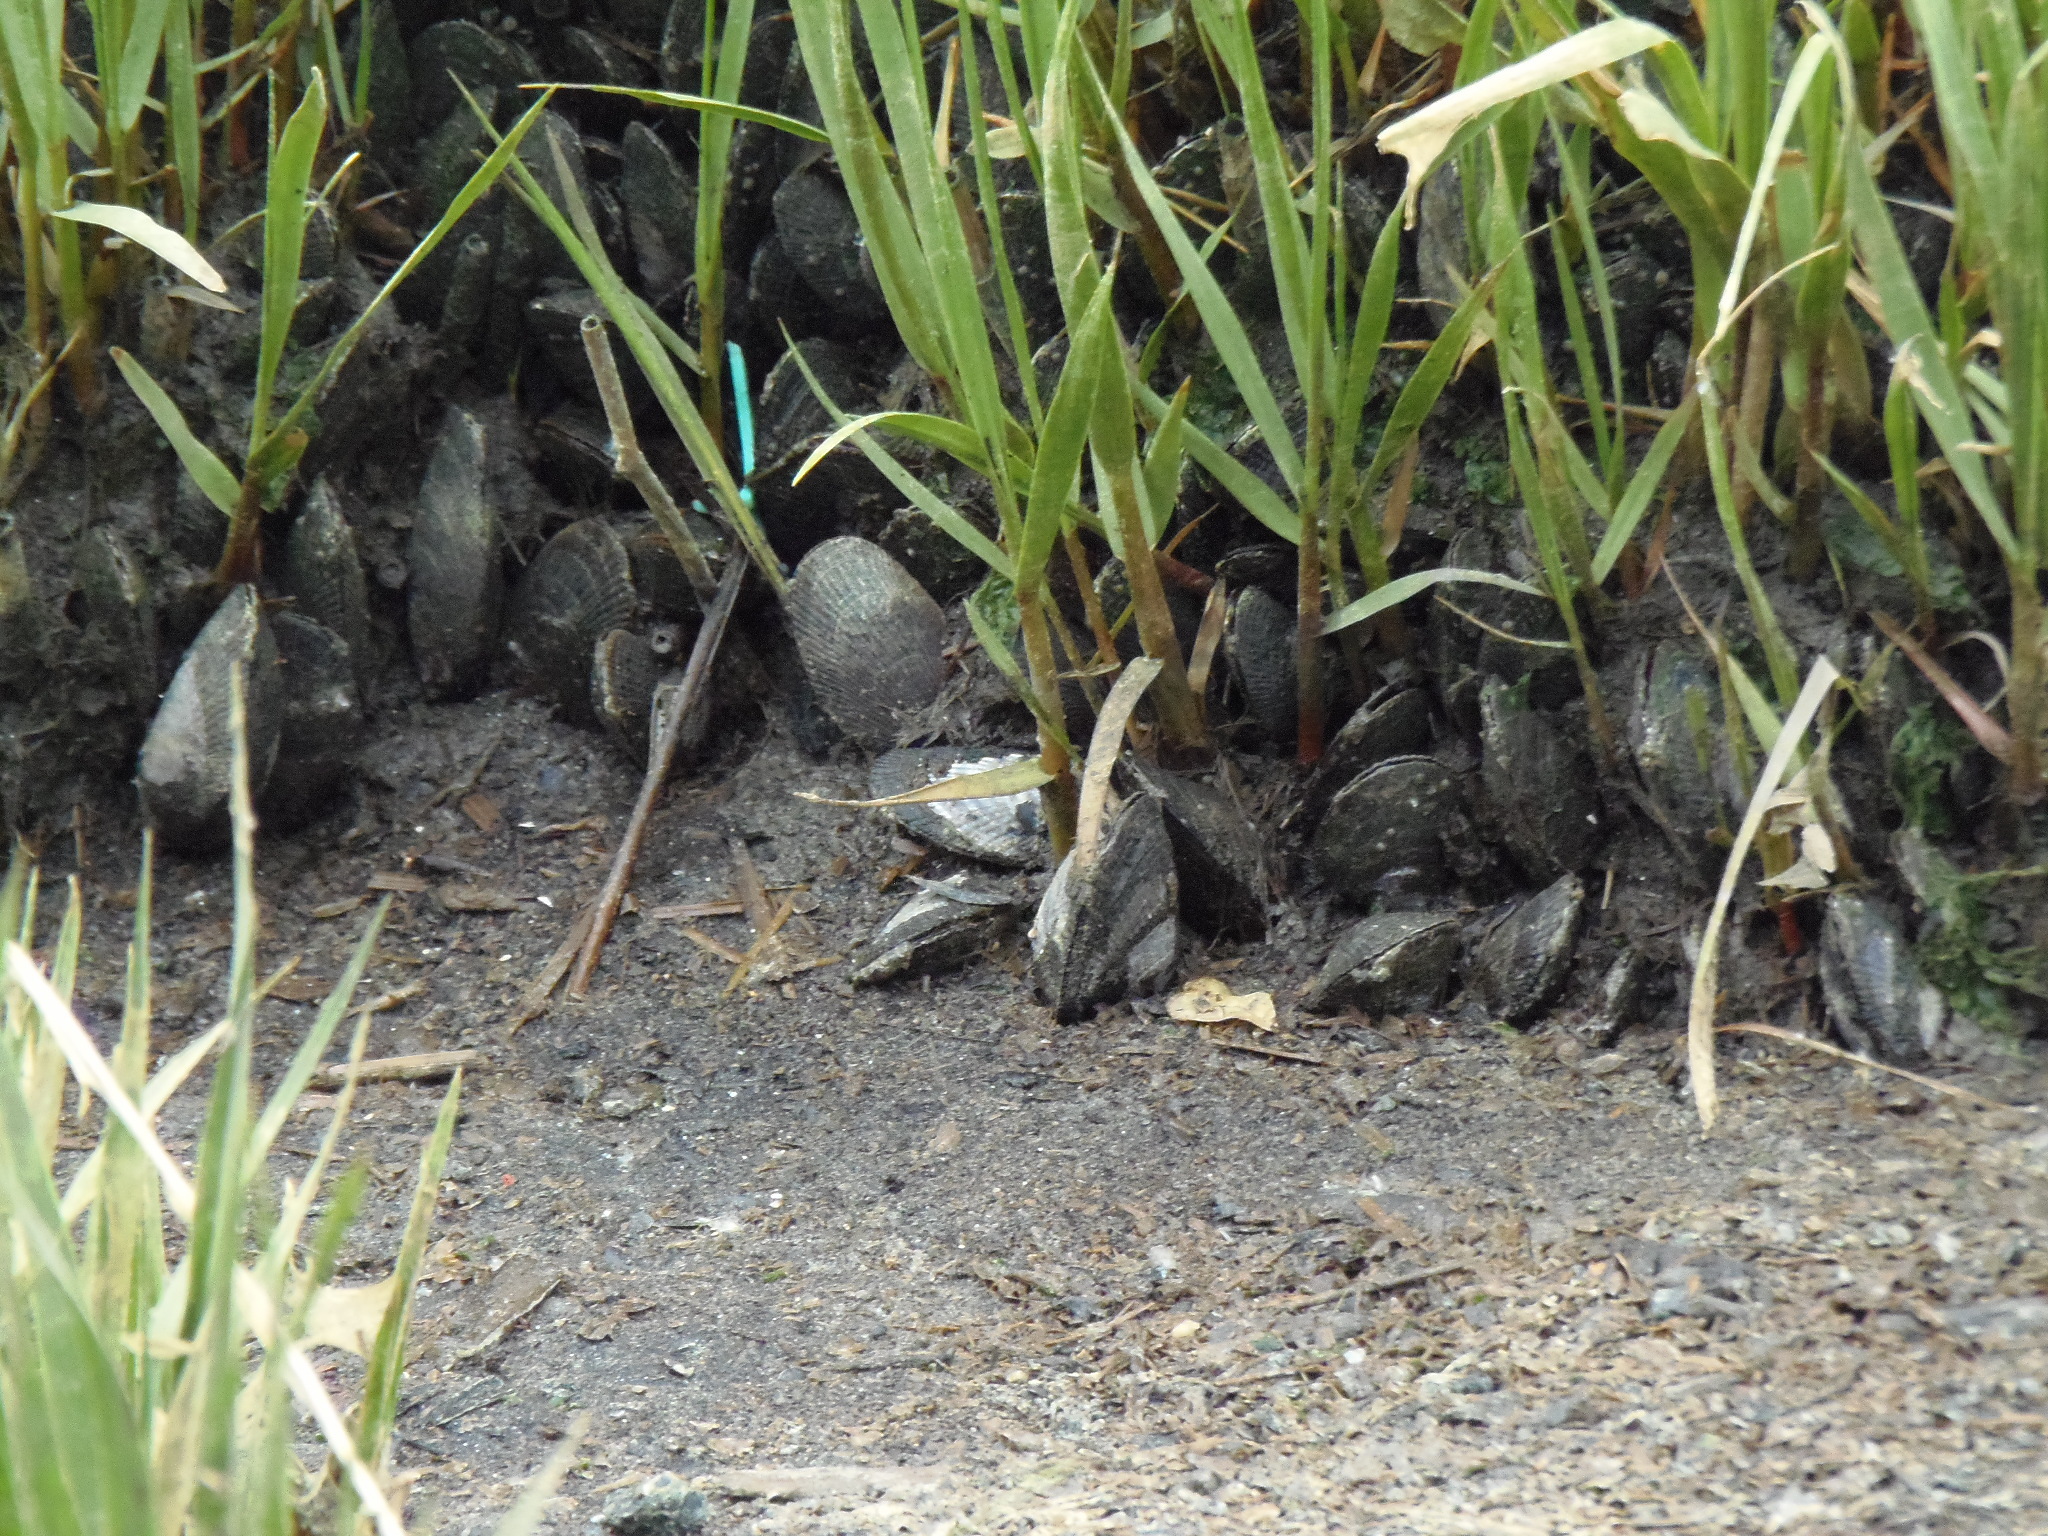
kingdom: Animalia
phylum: Mollusca
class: Bivalvia
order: Mytilida
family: Mytilidae
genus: Geukensia
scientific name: Geukensia demissa
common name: Ribbed mussel
